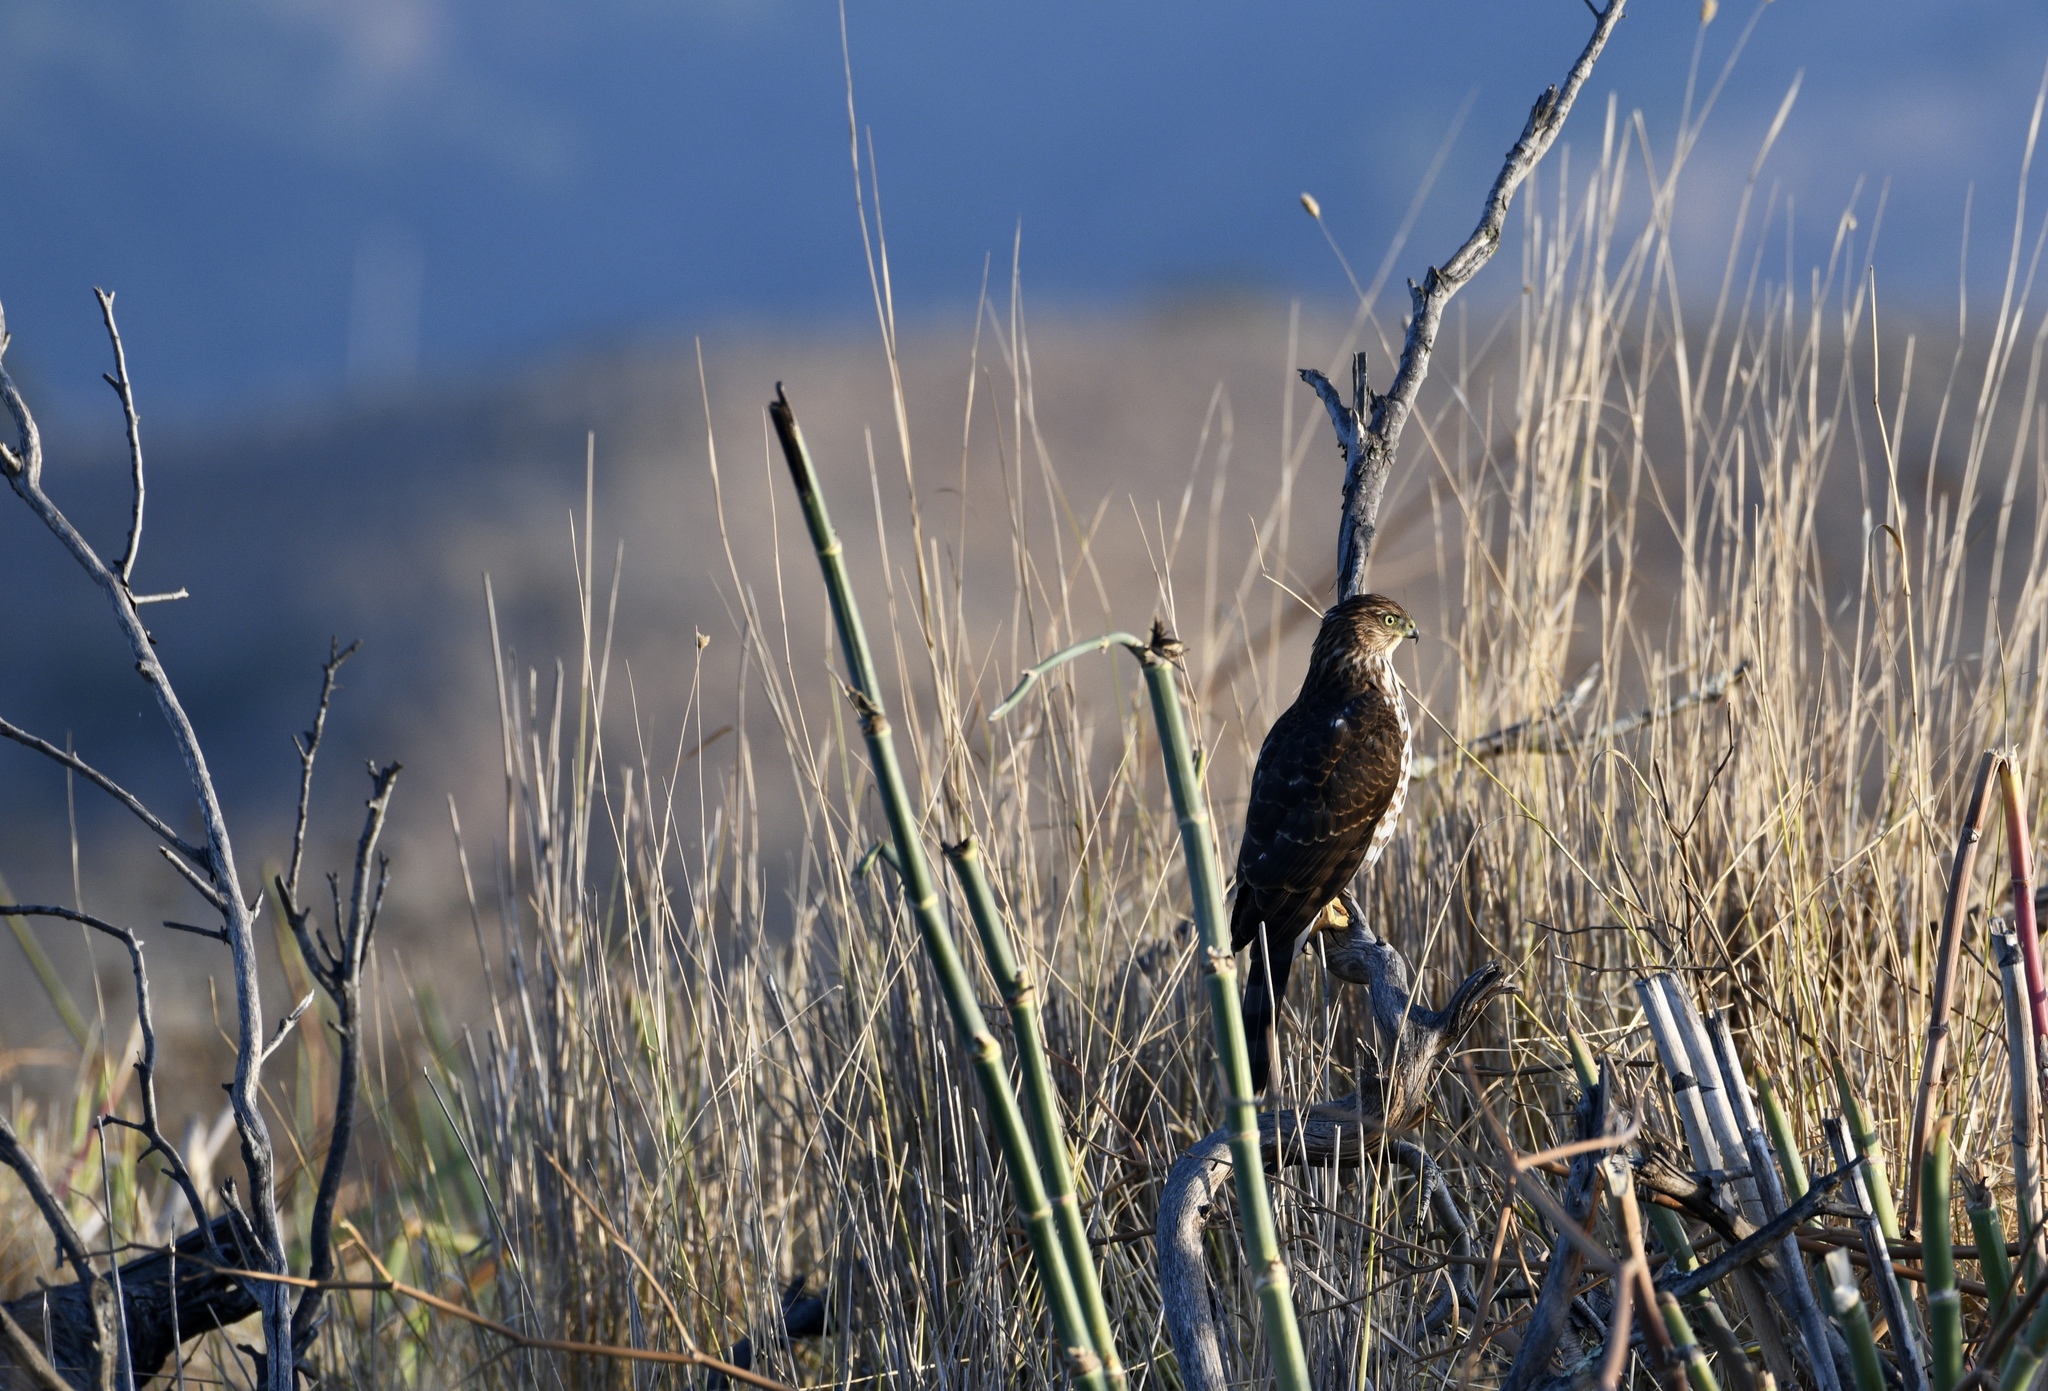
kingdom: Animalia
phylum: Chordata
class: Aves
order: Accipitriformes
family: Accipitridae
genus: Accipiter
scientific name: Accipiter cooperii
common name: Cooper's hawk
